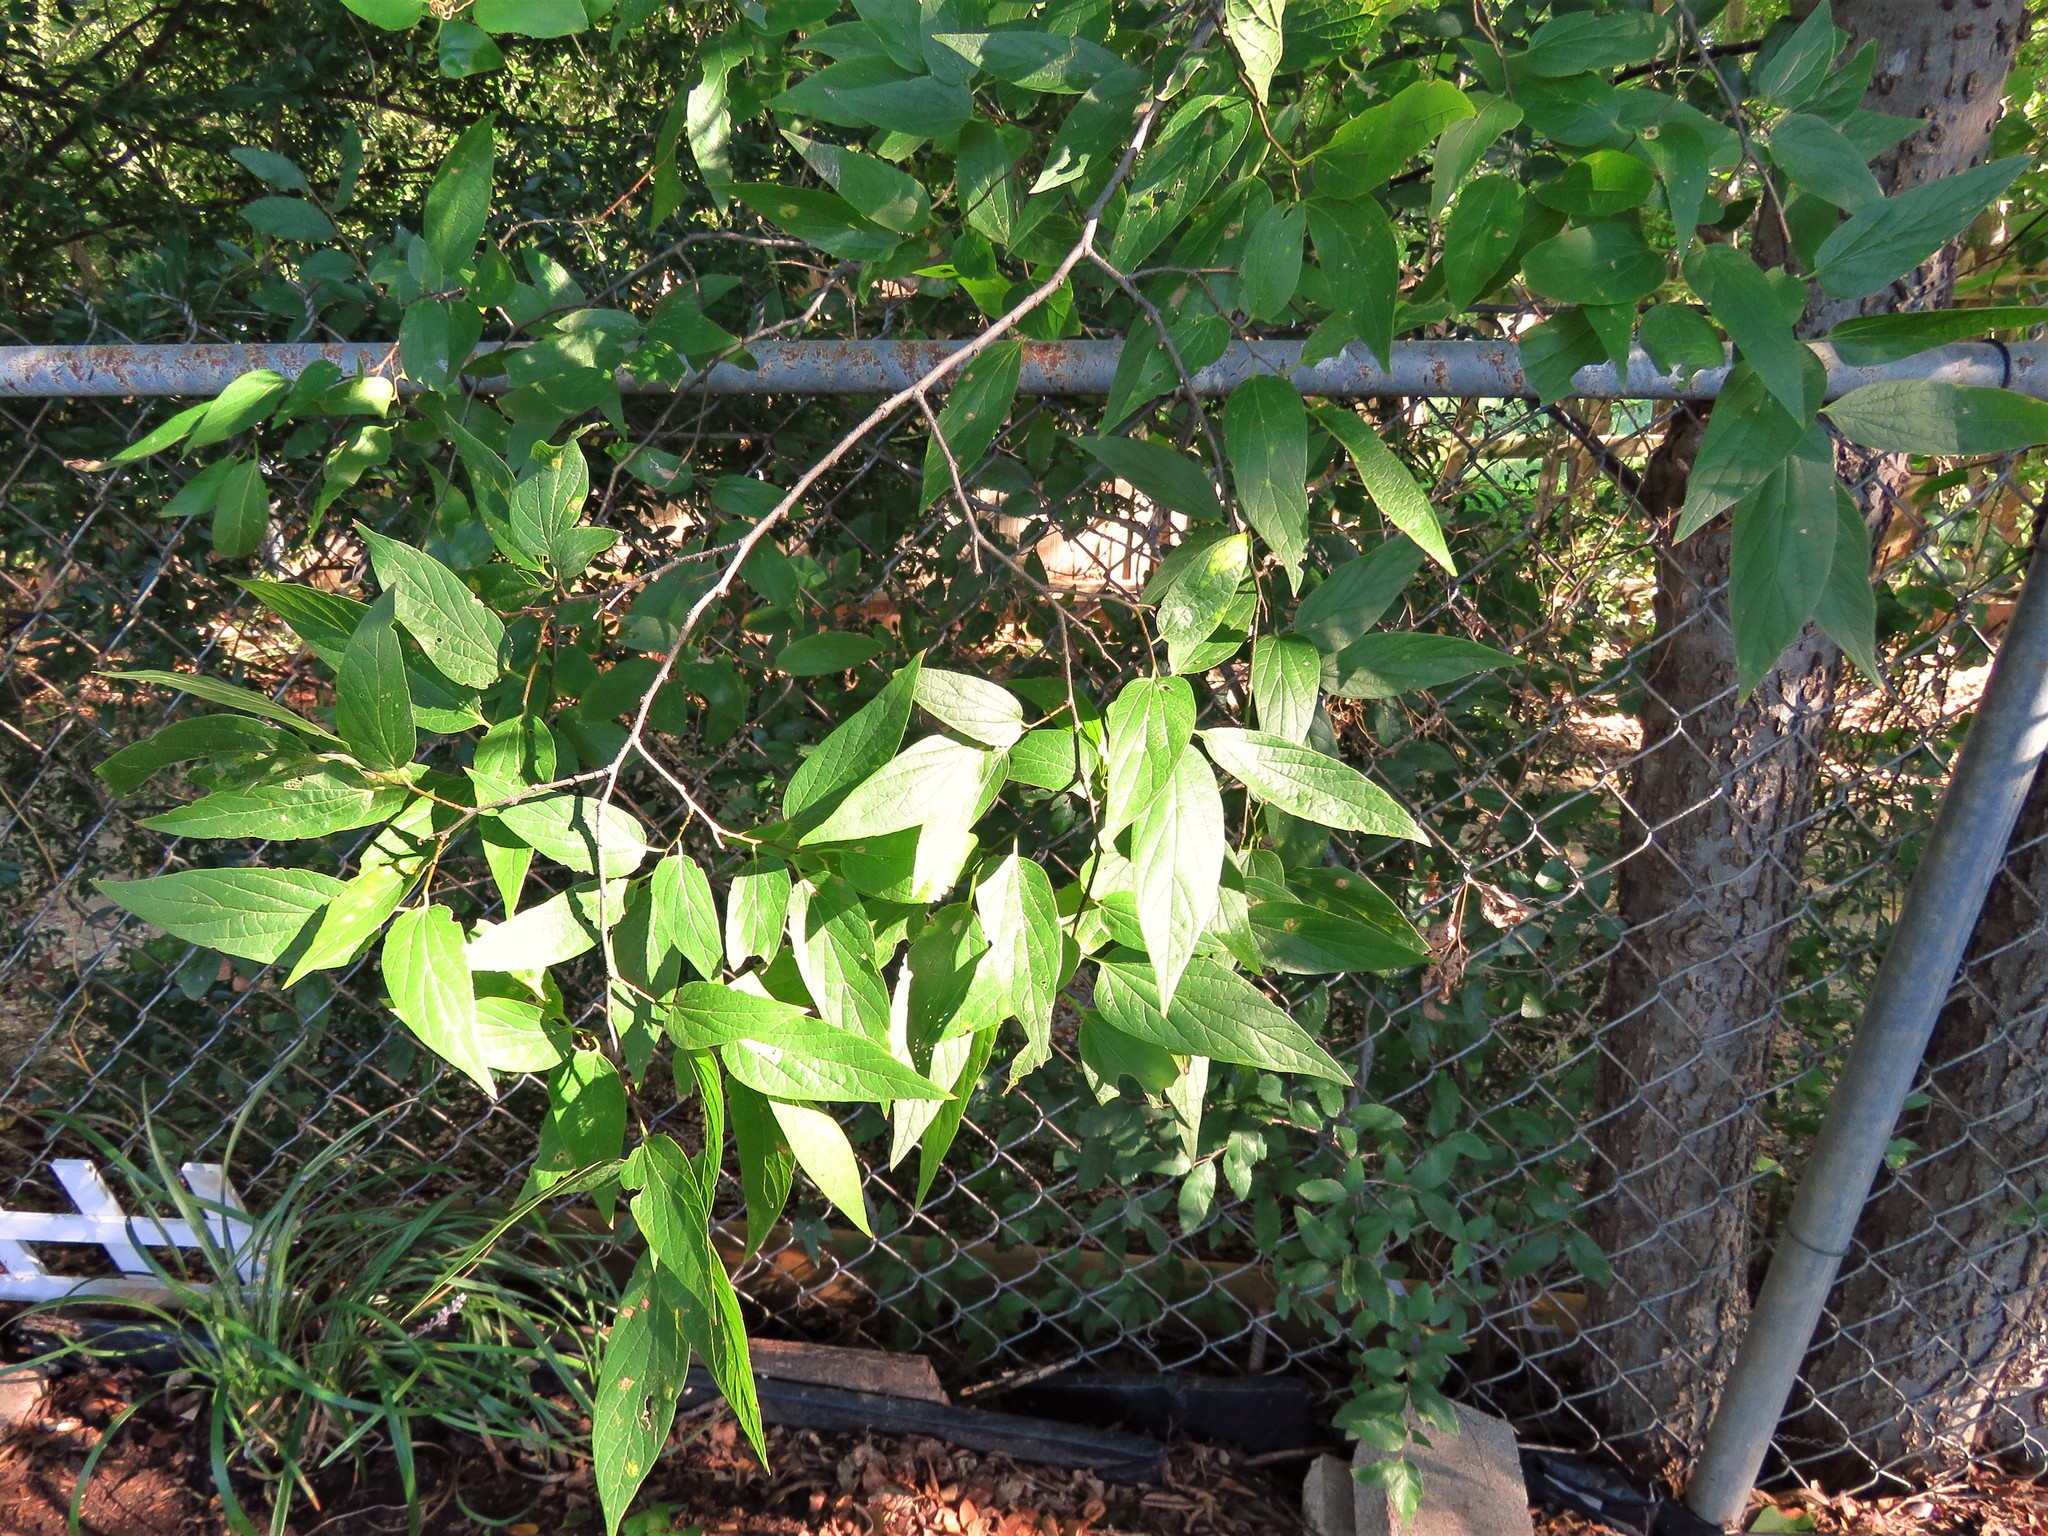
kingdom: Plantae
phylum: Tracheophyta
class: Magnoliopsida
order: Rosales
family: Cannabaceae
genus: Celtis
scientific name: Celtis laevigata
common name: Sugarberry
